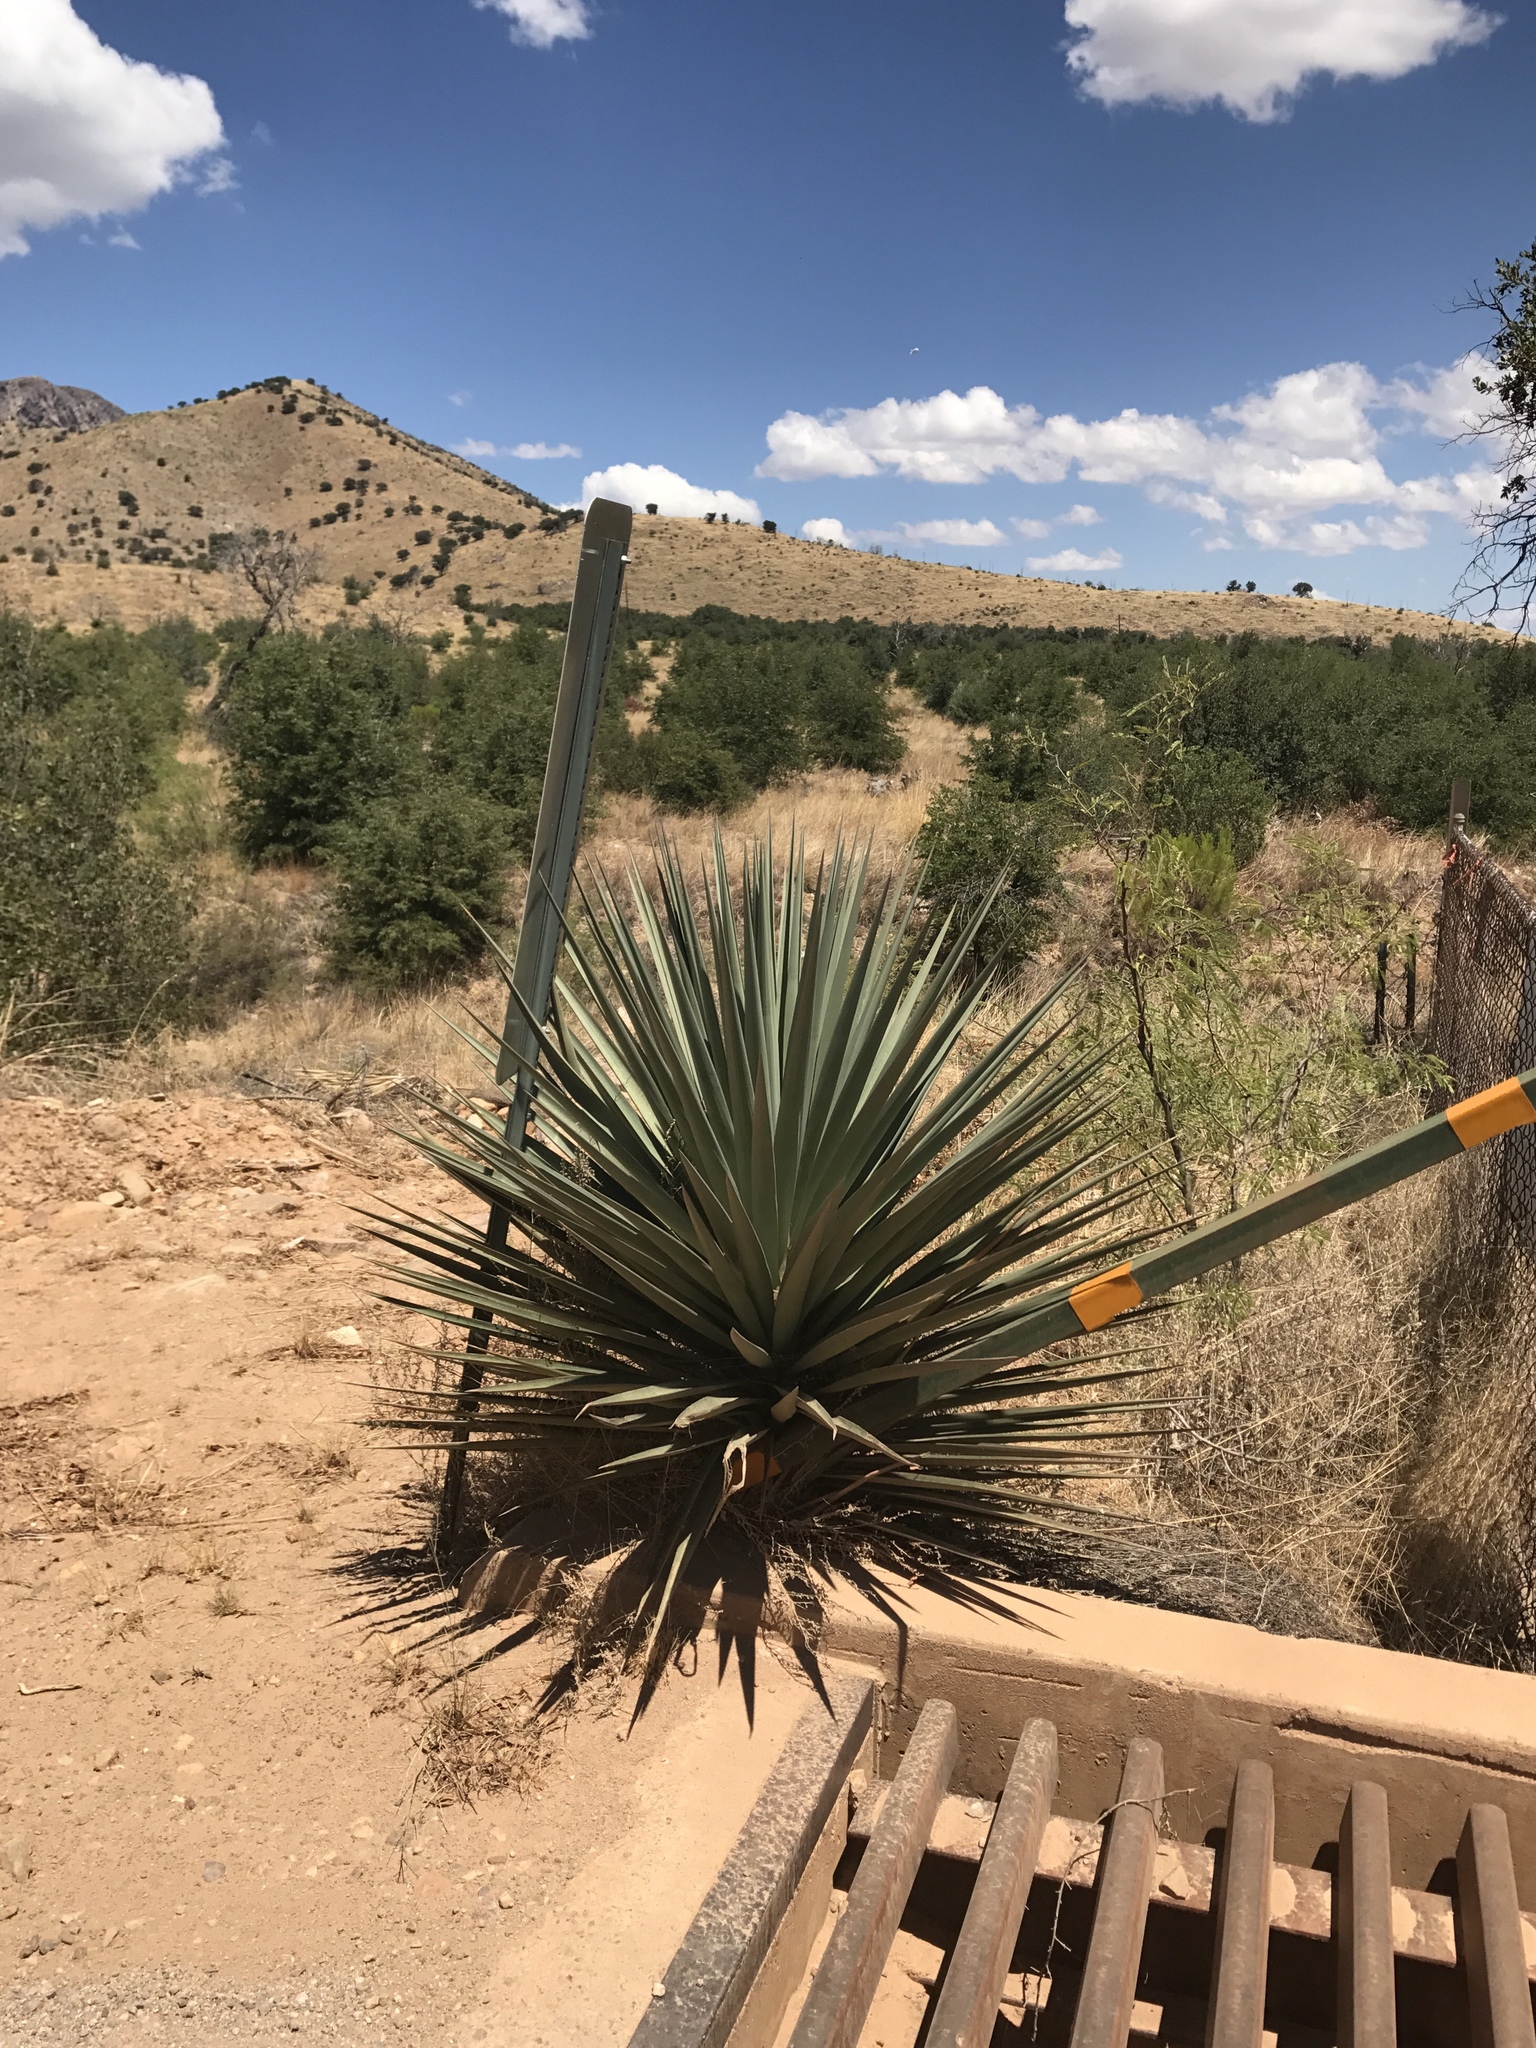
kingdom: Plantae
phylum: Tracheophyta
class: Liliopsida
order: Asparagales
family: Asparagaceae
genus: Yucca
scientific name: Yucca madrensis
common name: Hoary yucca
